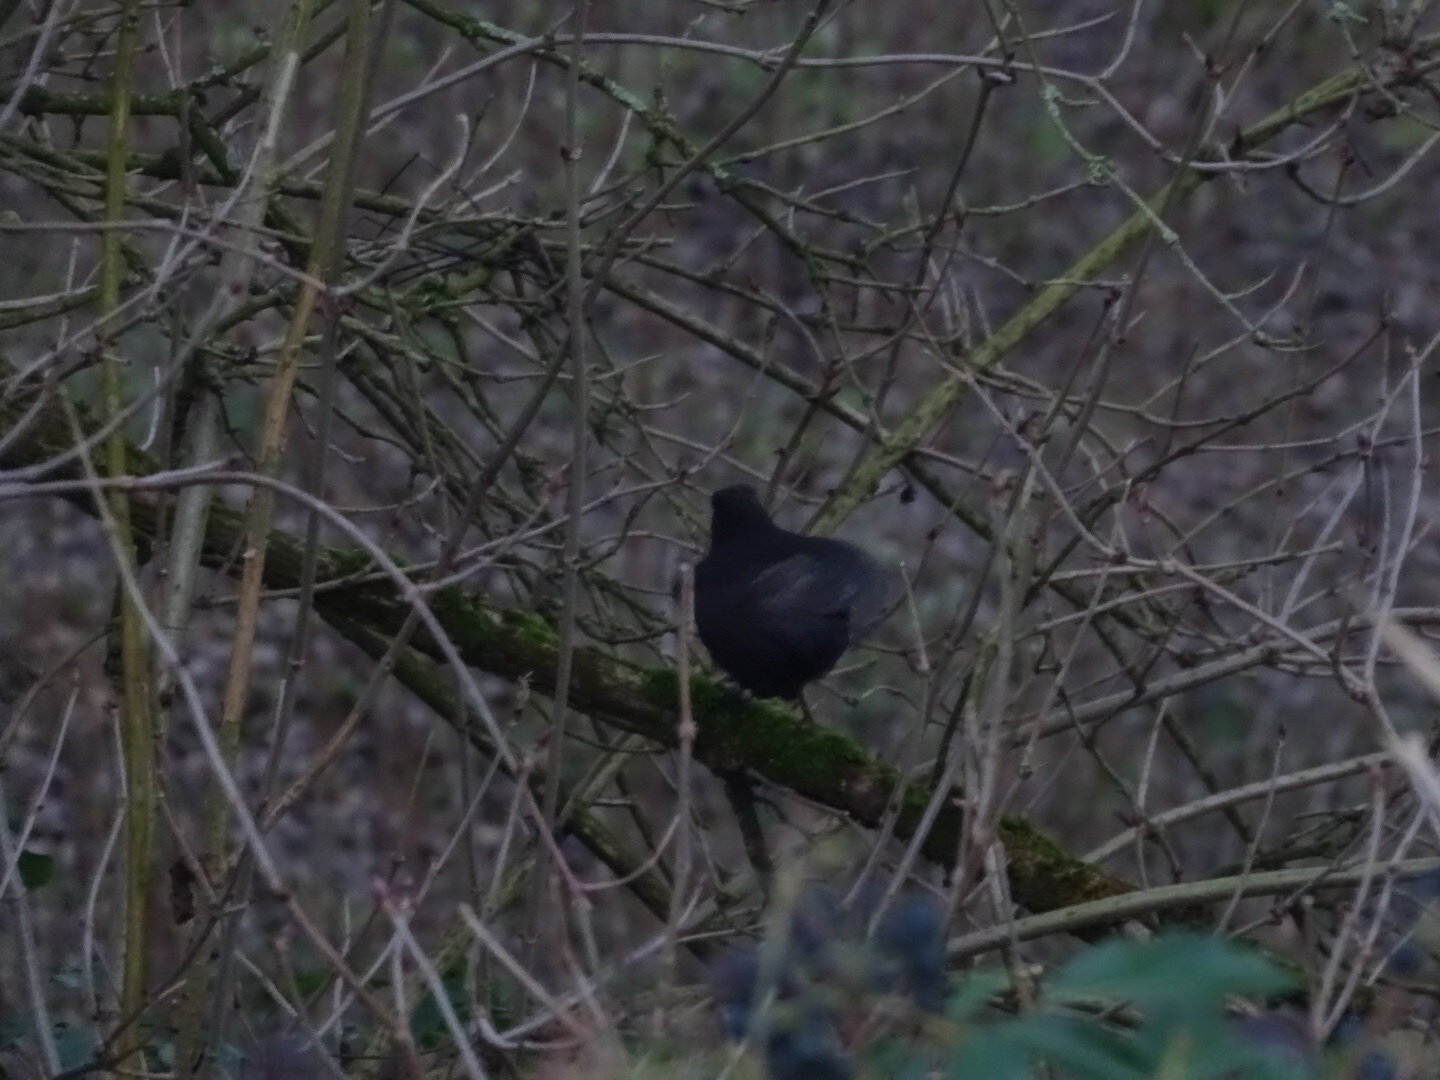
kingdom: Animalia
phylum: Chordata
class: Aves
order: Passeriformes
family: Turdidae
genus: Turdus
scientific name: Turdus merula
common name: Common blackbird
